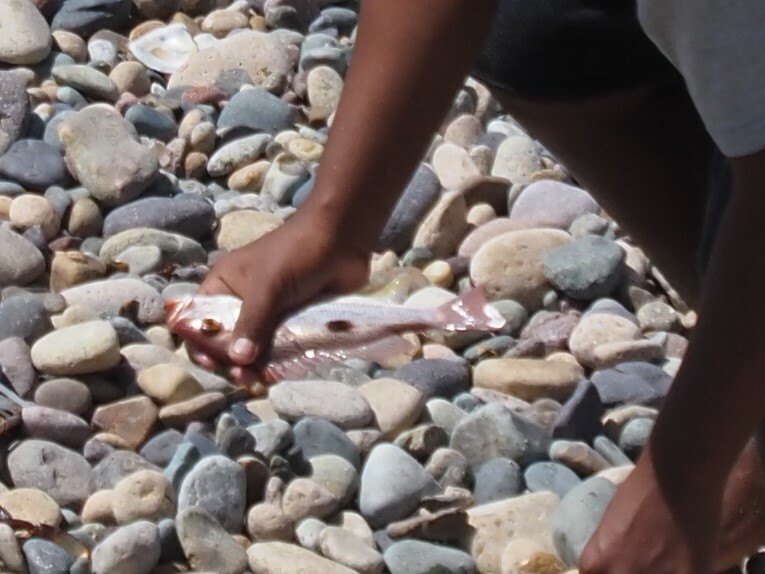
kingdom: Animalia
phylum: Chordata
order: Perciformes
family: Lutjanidae
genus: Lutjanus
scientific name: Lutjanus guttatus
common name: Spotted rose snapper
